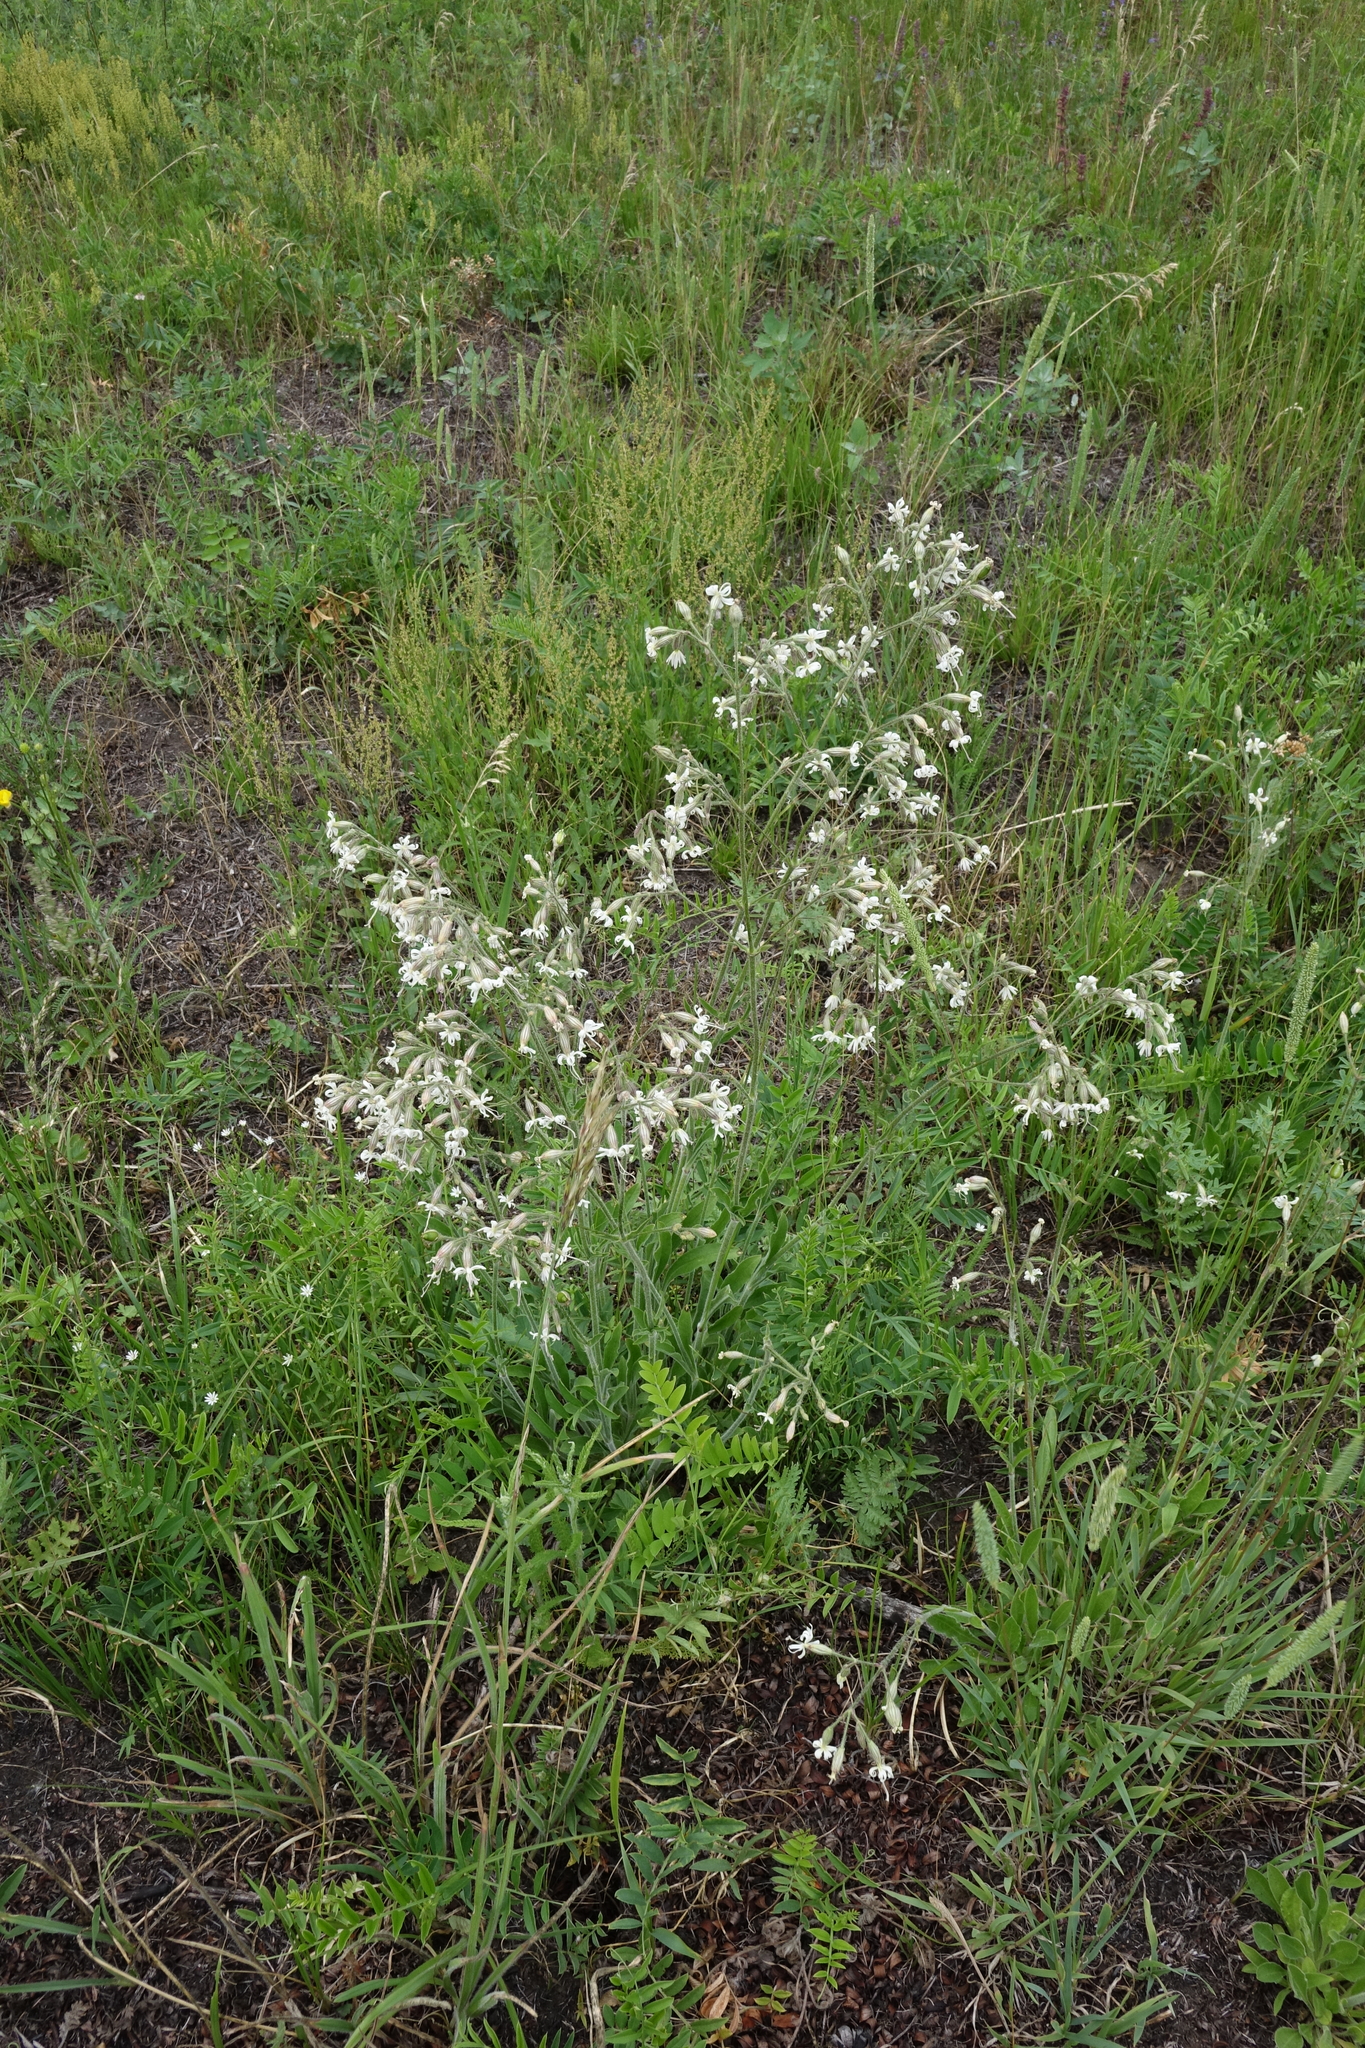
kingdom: Plantae
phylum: Tracheophyta
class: Magnoliopsida
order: Caryophyllales
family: Caryophyllaceae
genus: Silene
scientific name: Silene nutans
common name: Nottingham catchfly
